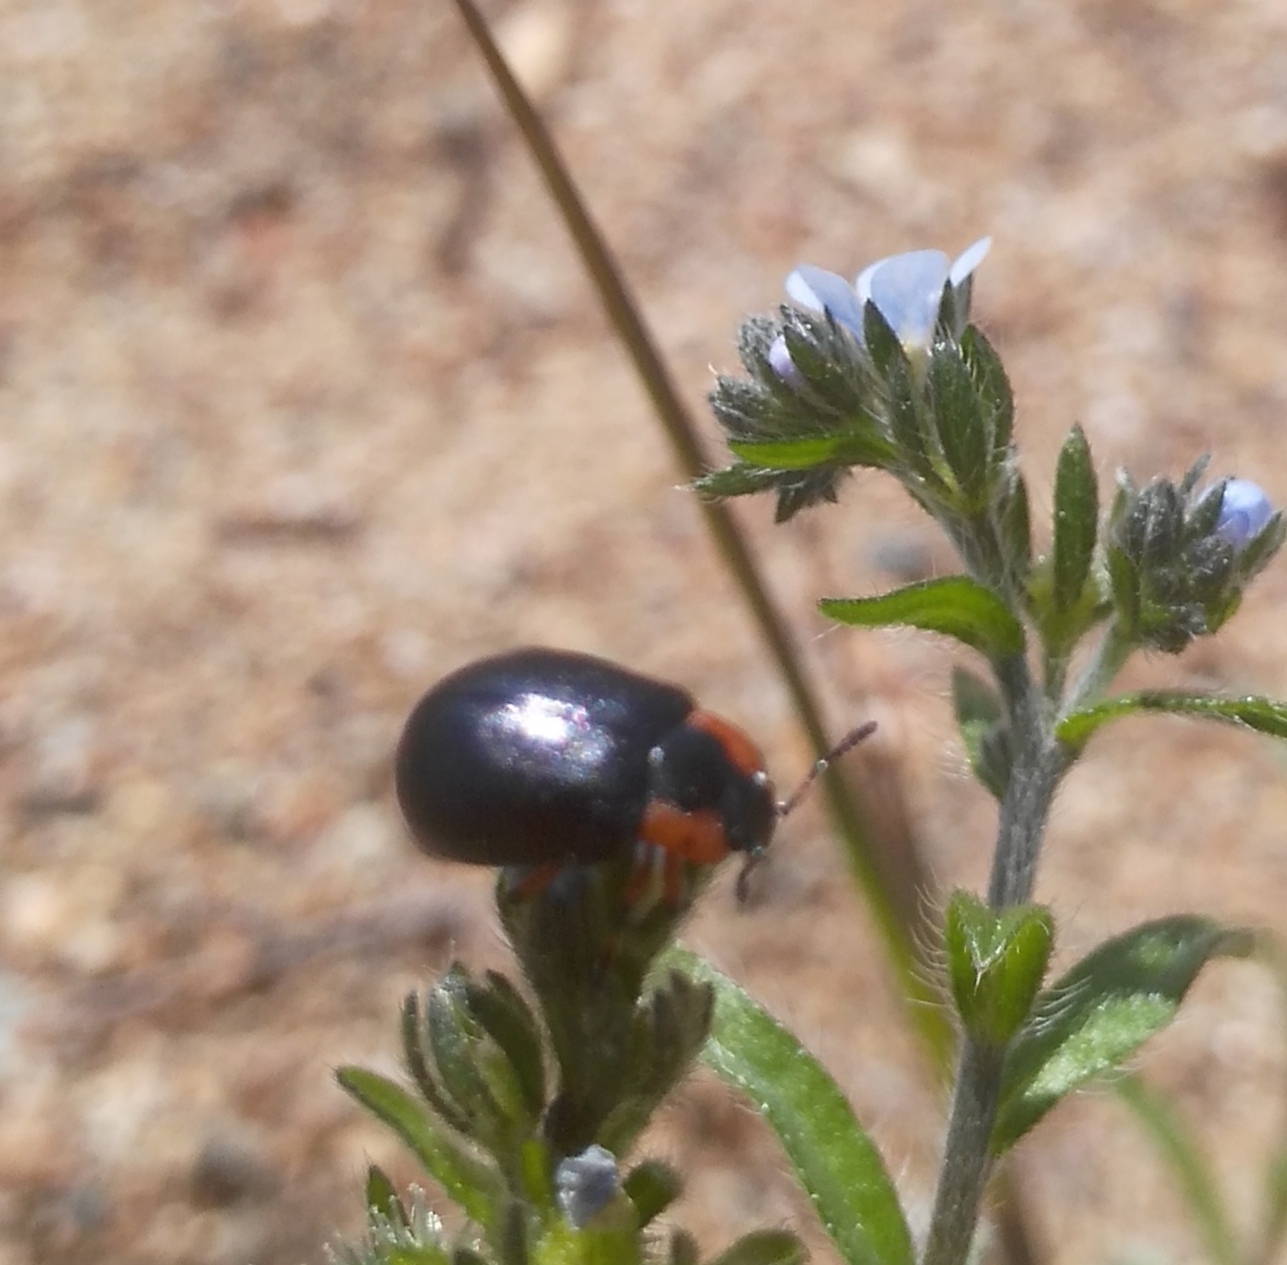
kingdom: Animalia
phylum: Arthropoda
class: Insecta
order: Coleoptera
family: Chrysomelidae
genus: Chrysomela
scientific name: Chrysomela collaris
